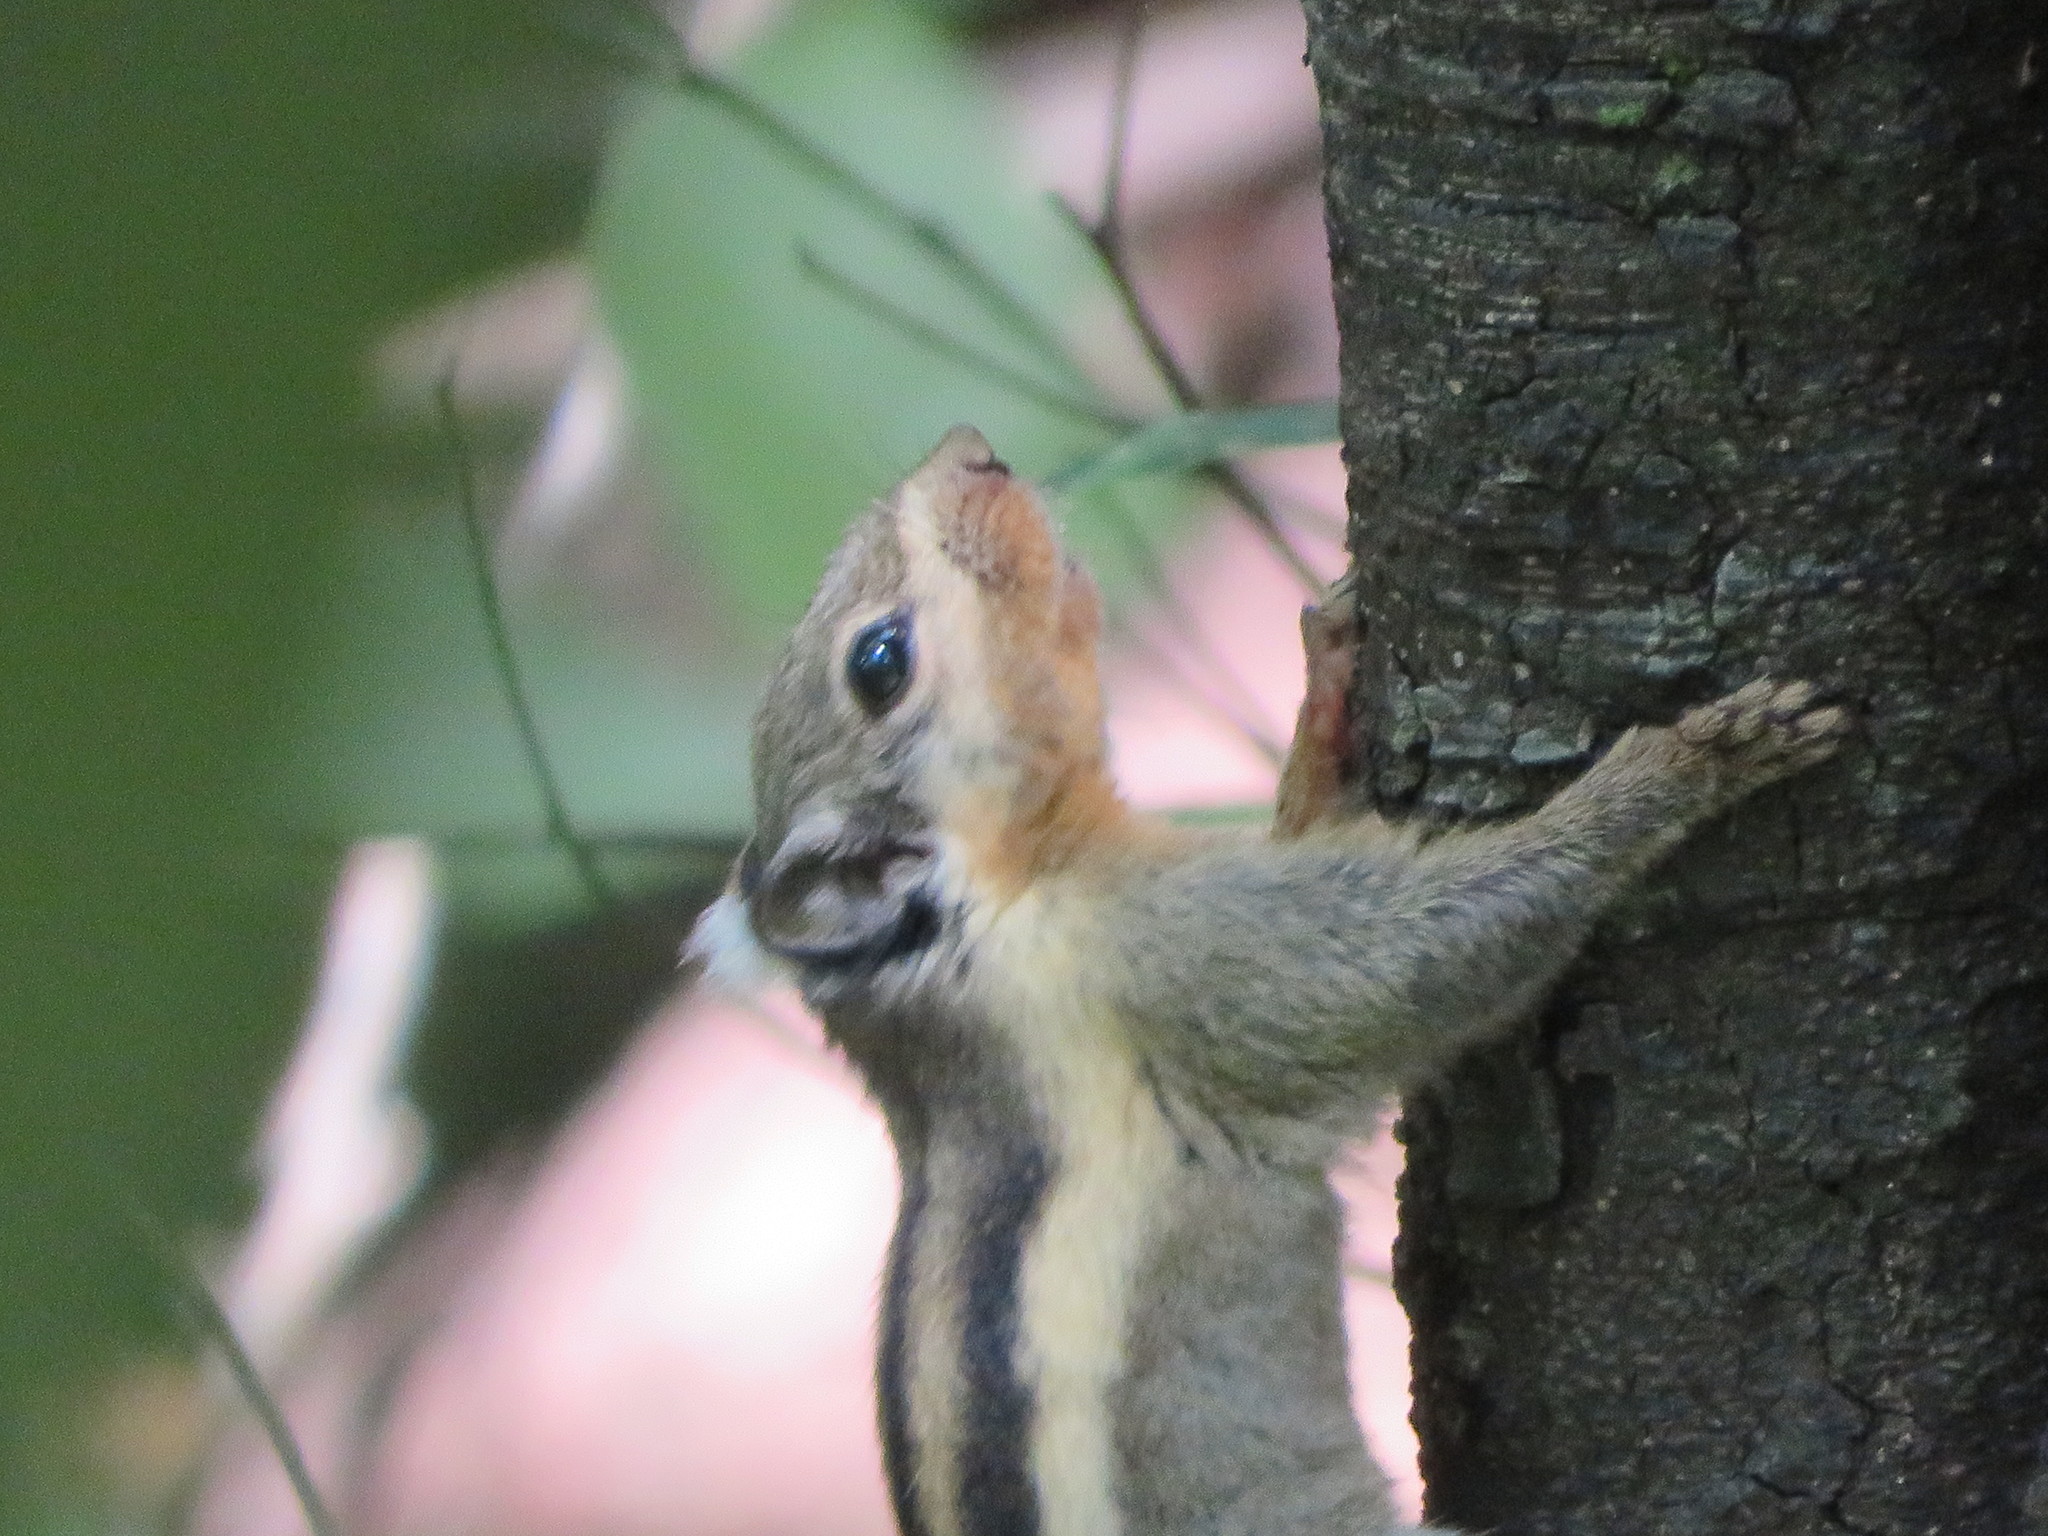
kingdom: Animalia
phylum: Chordata
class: Mammalia
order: Rodentia
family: Sciuridae
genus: Tamiops
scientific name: Tamiops mcclellandii
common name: Himalayan striped squirrel
